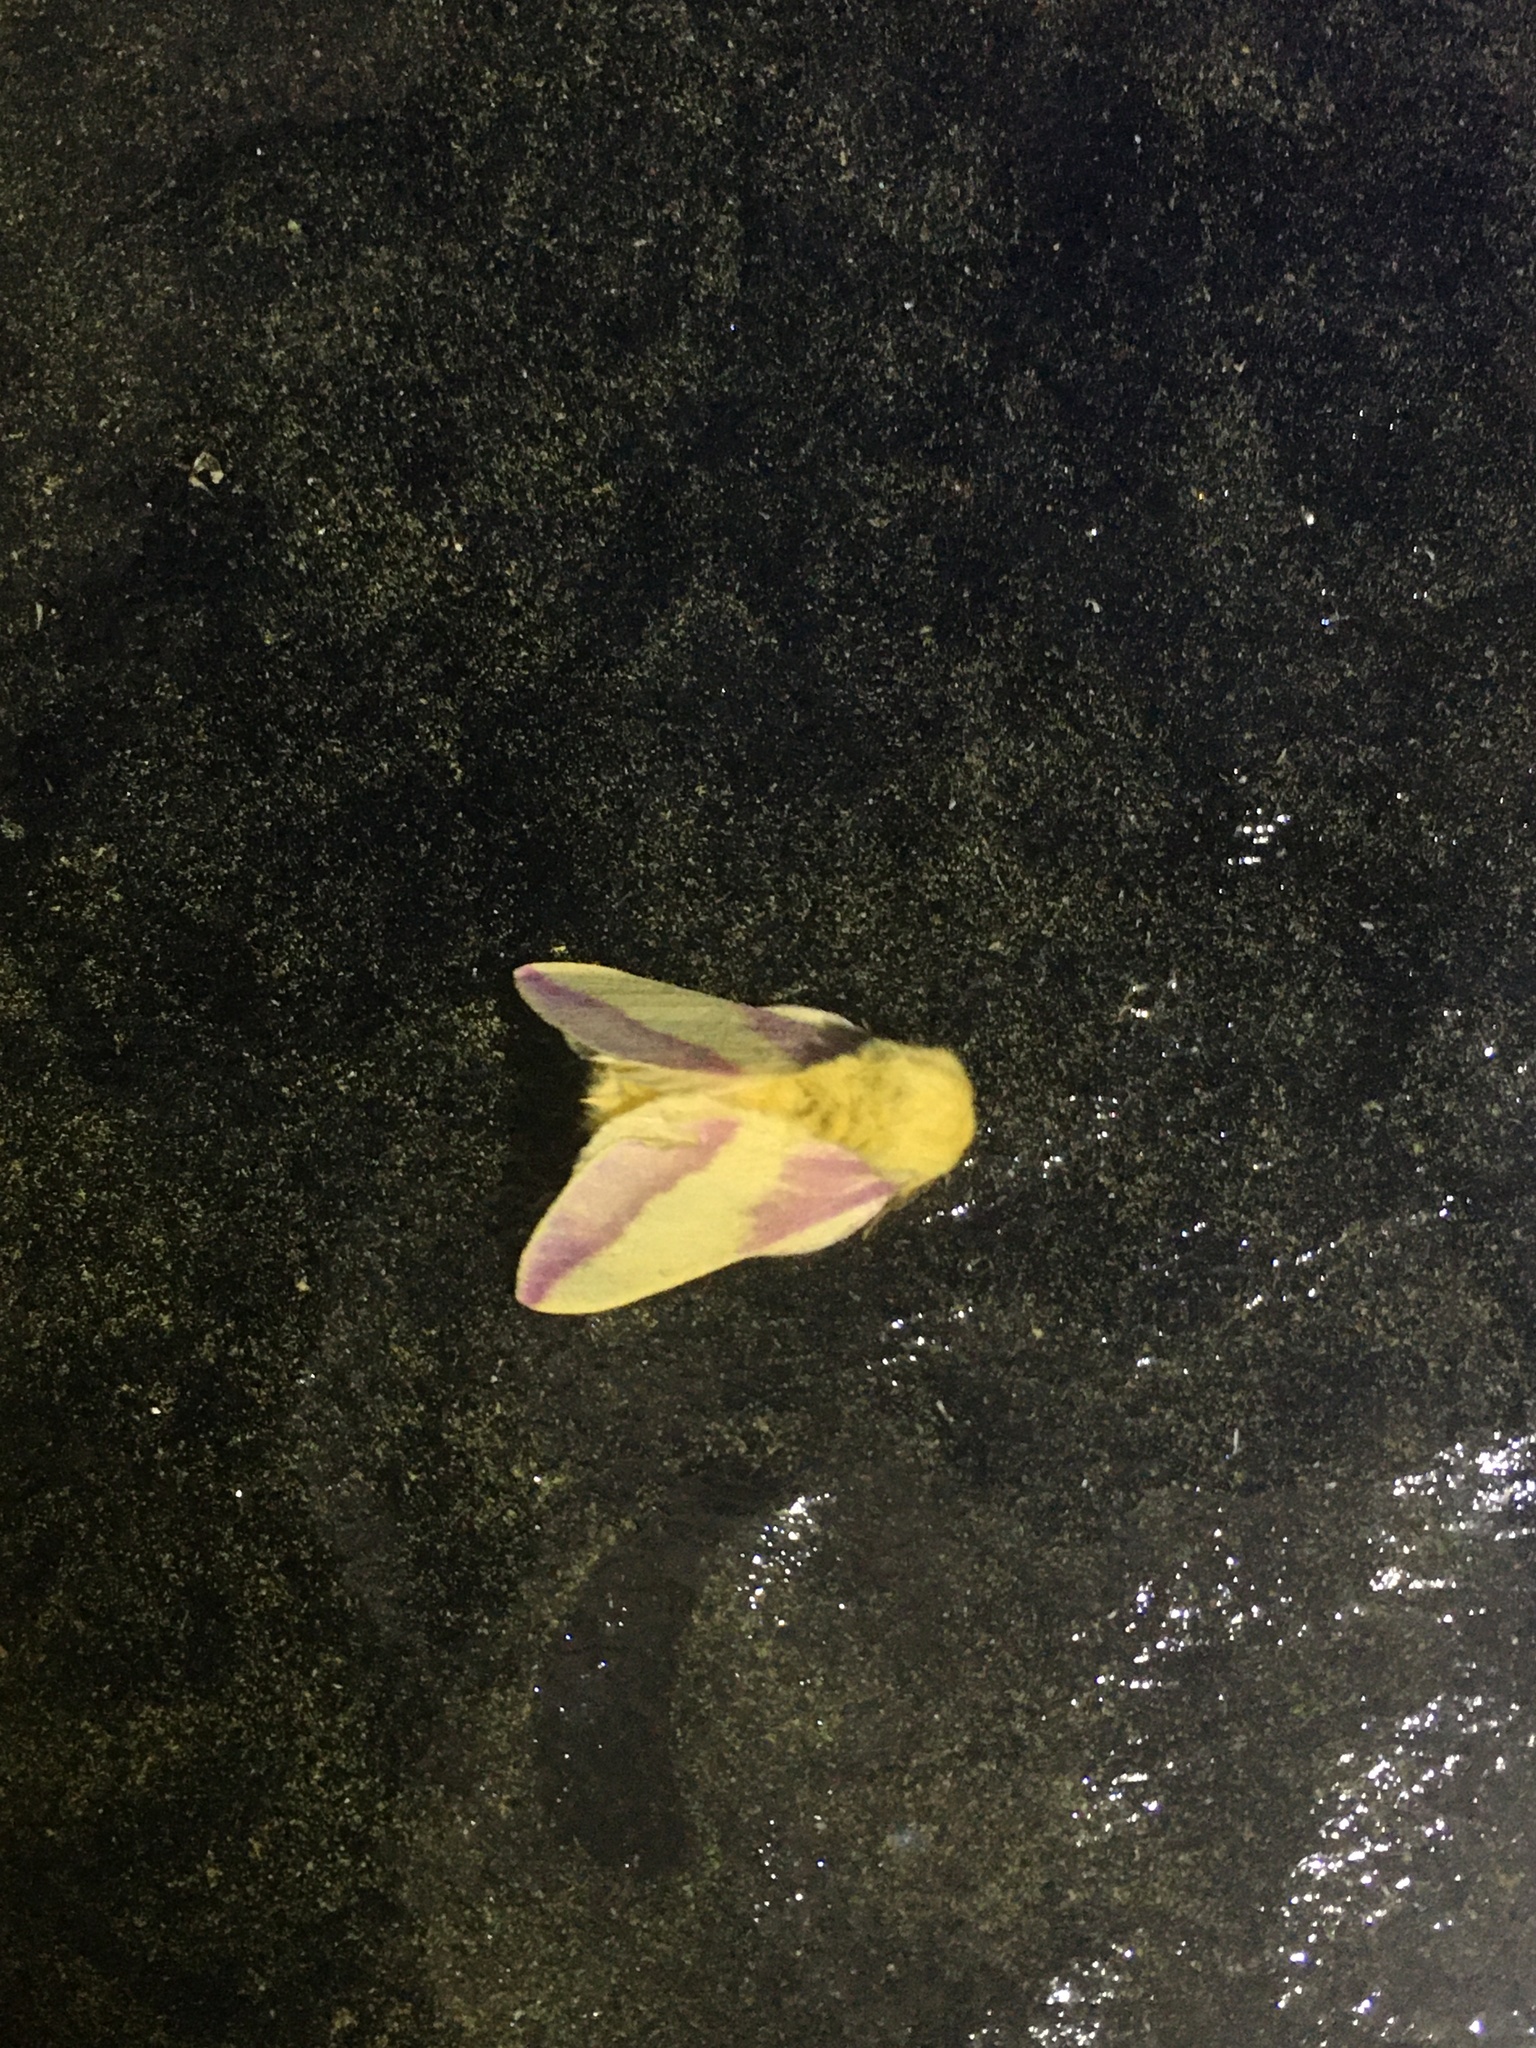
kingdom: Animalia
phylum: Arthropoda
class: Insecta
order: Lepidoptera
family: Saturniidae
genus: Dryocampa
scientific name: Dryocampa rubicunda
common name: Rosy maple moth
